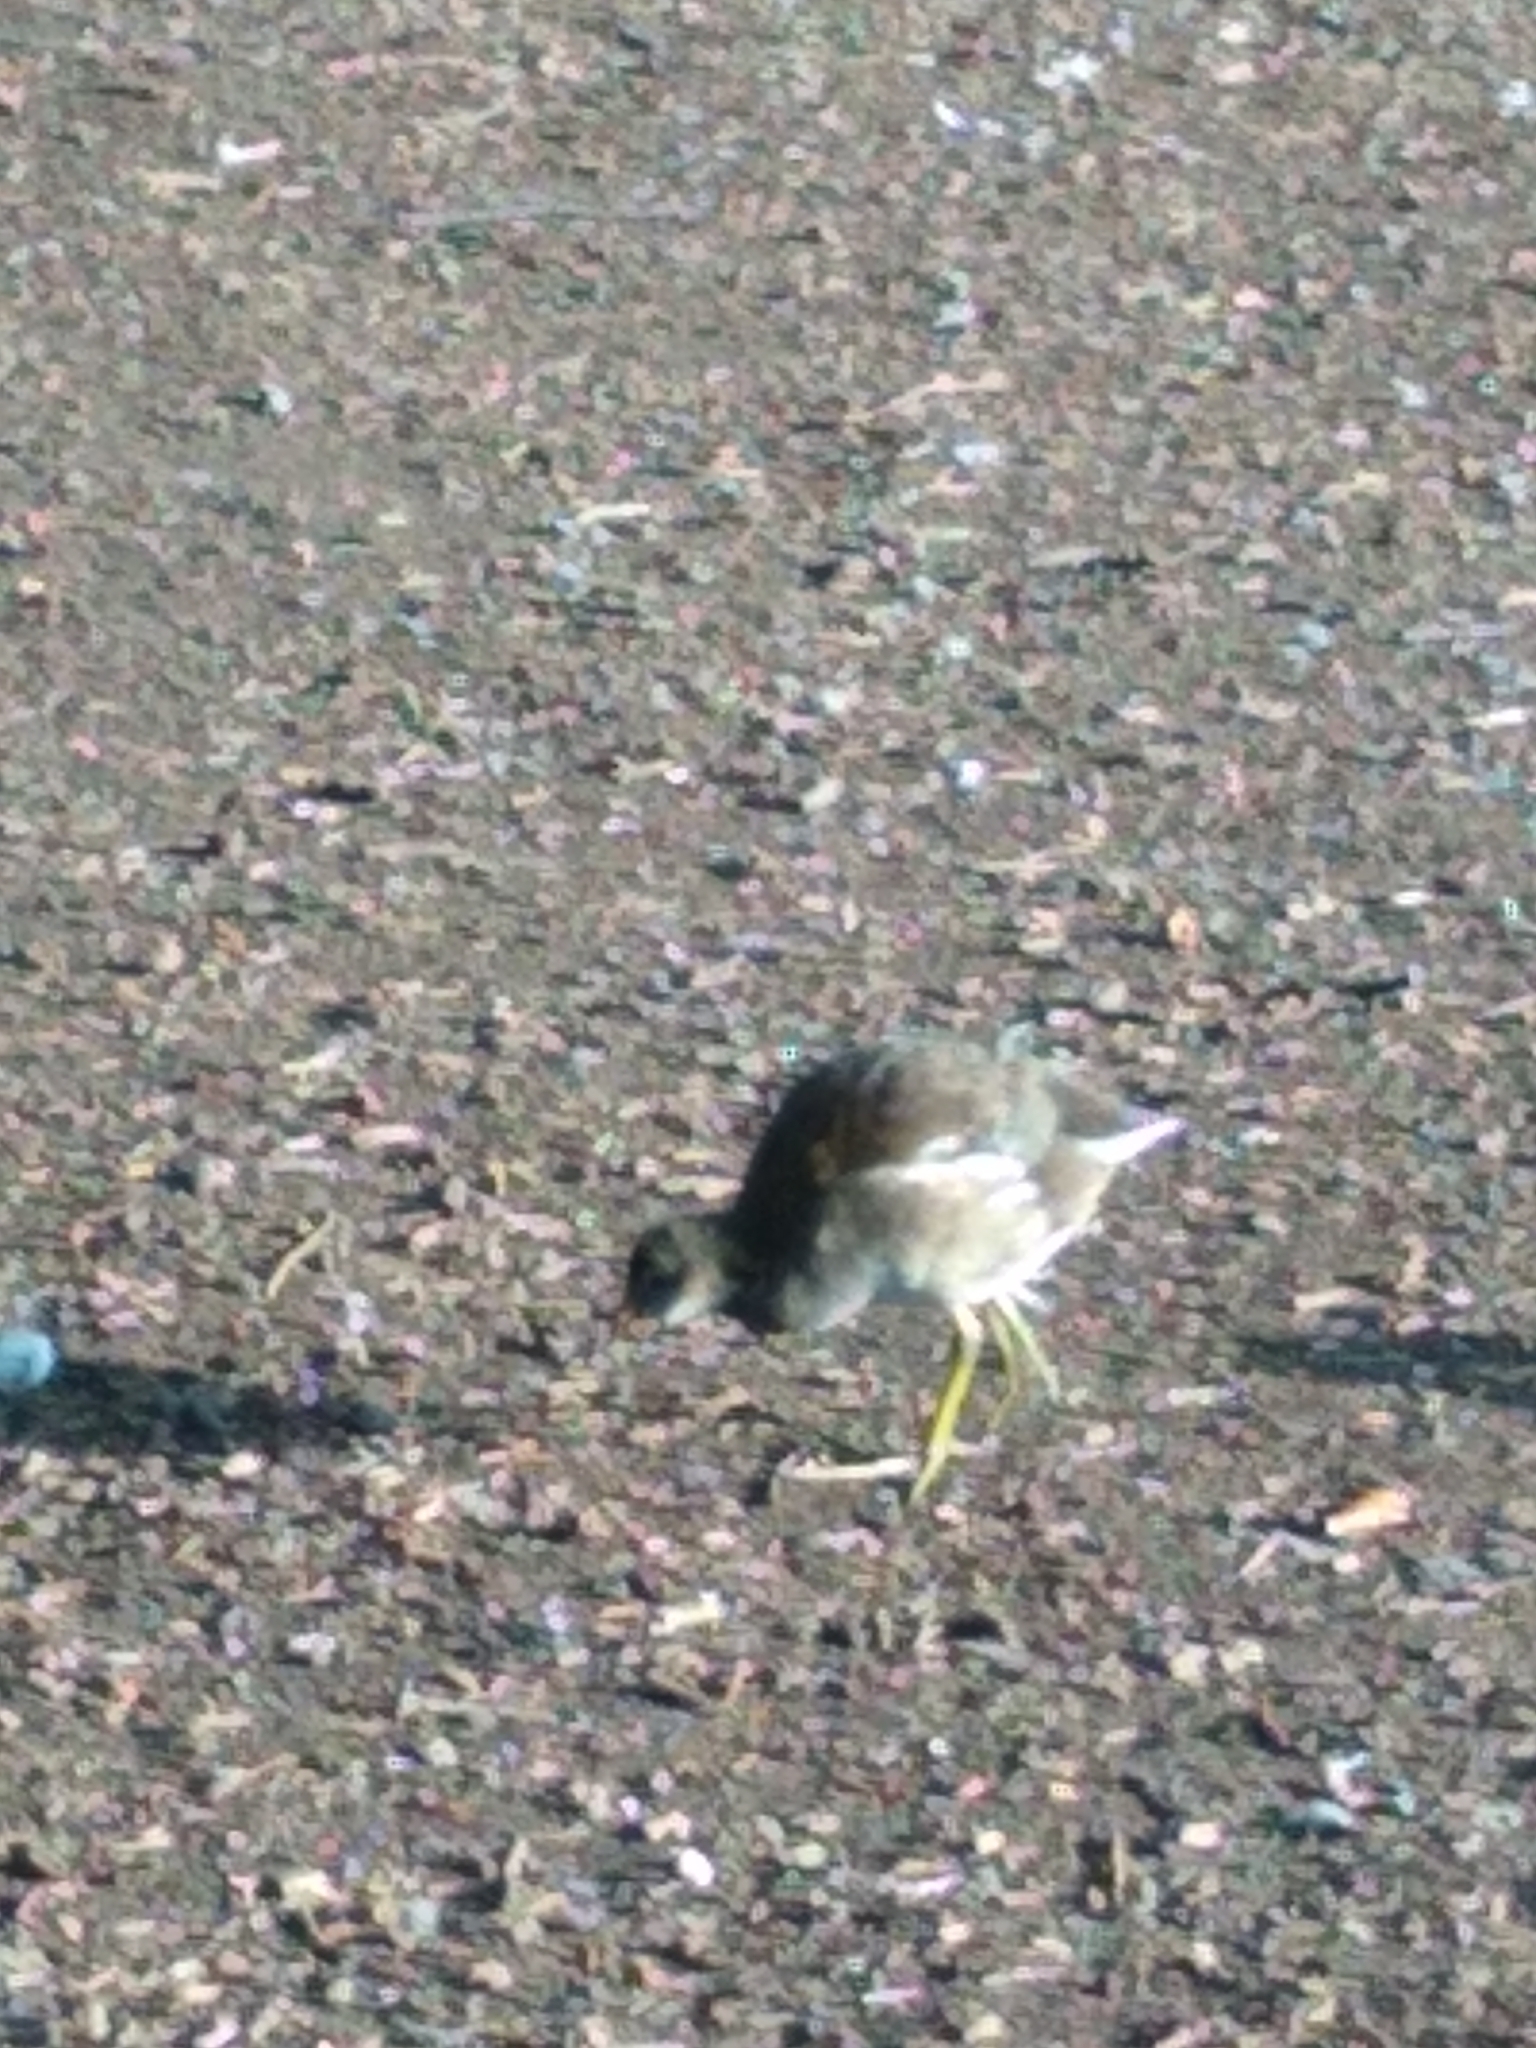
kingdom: Animalia
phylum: Chordata
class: Aves
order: Gruiformes
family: Rallidae
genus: Gallinula
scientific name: Gallinula chloropus
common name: Common moorhen
